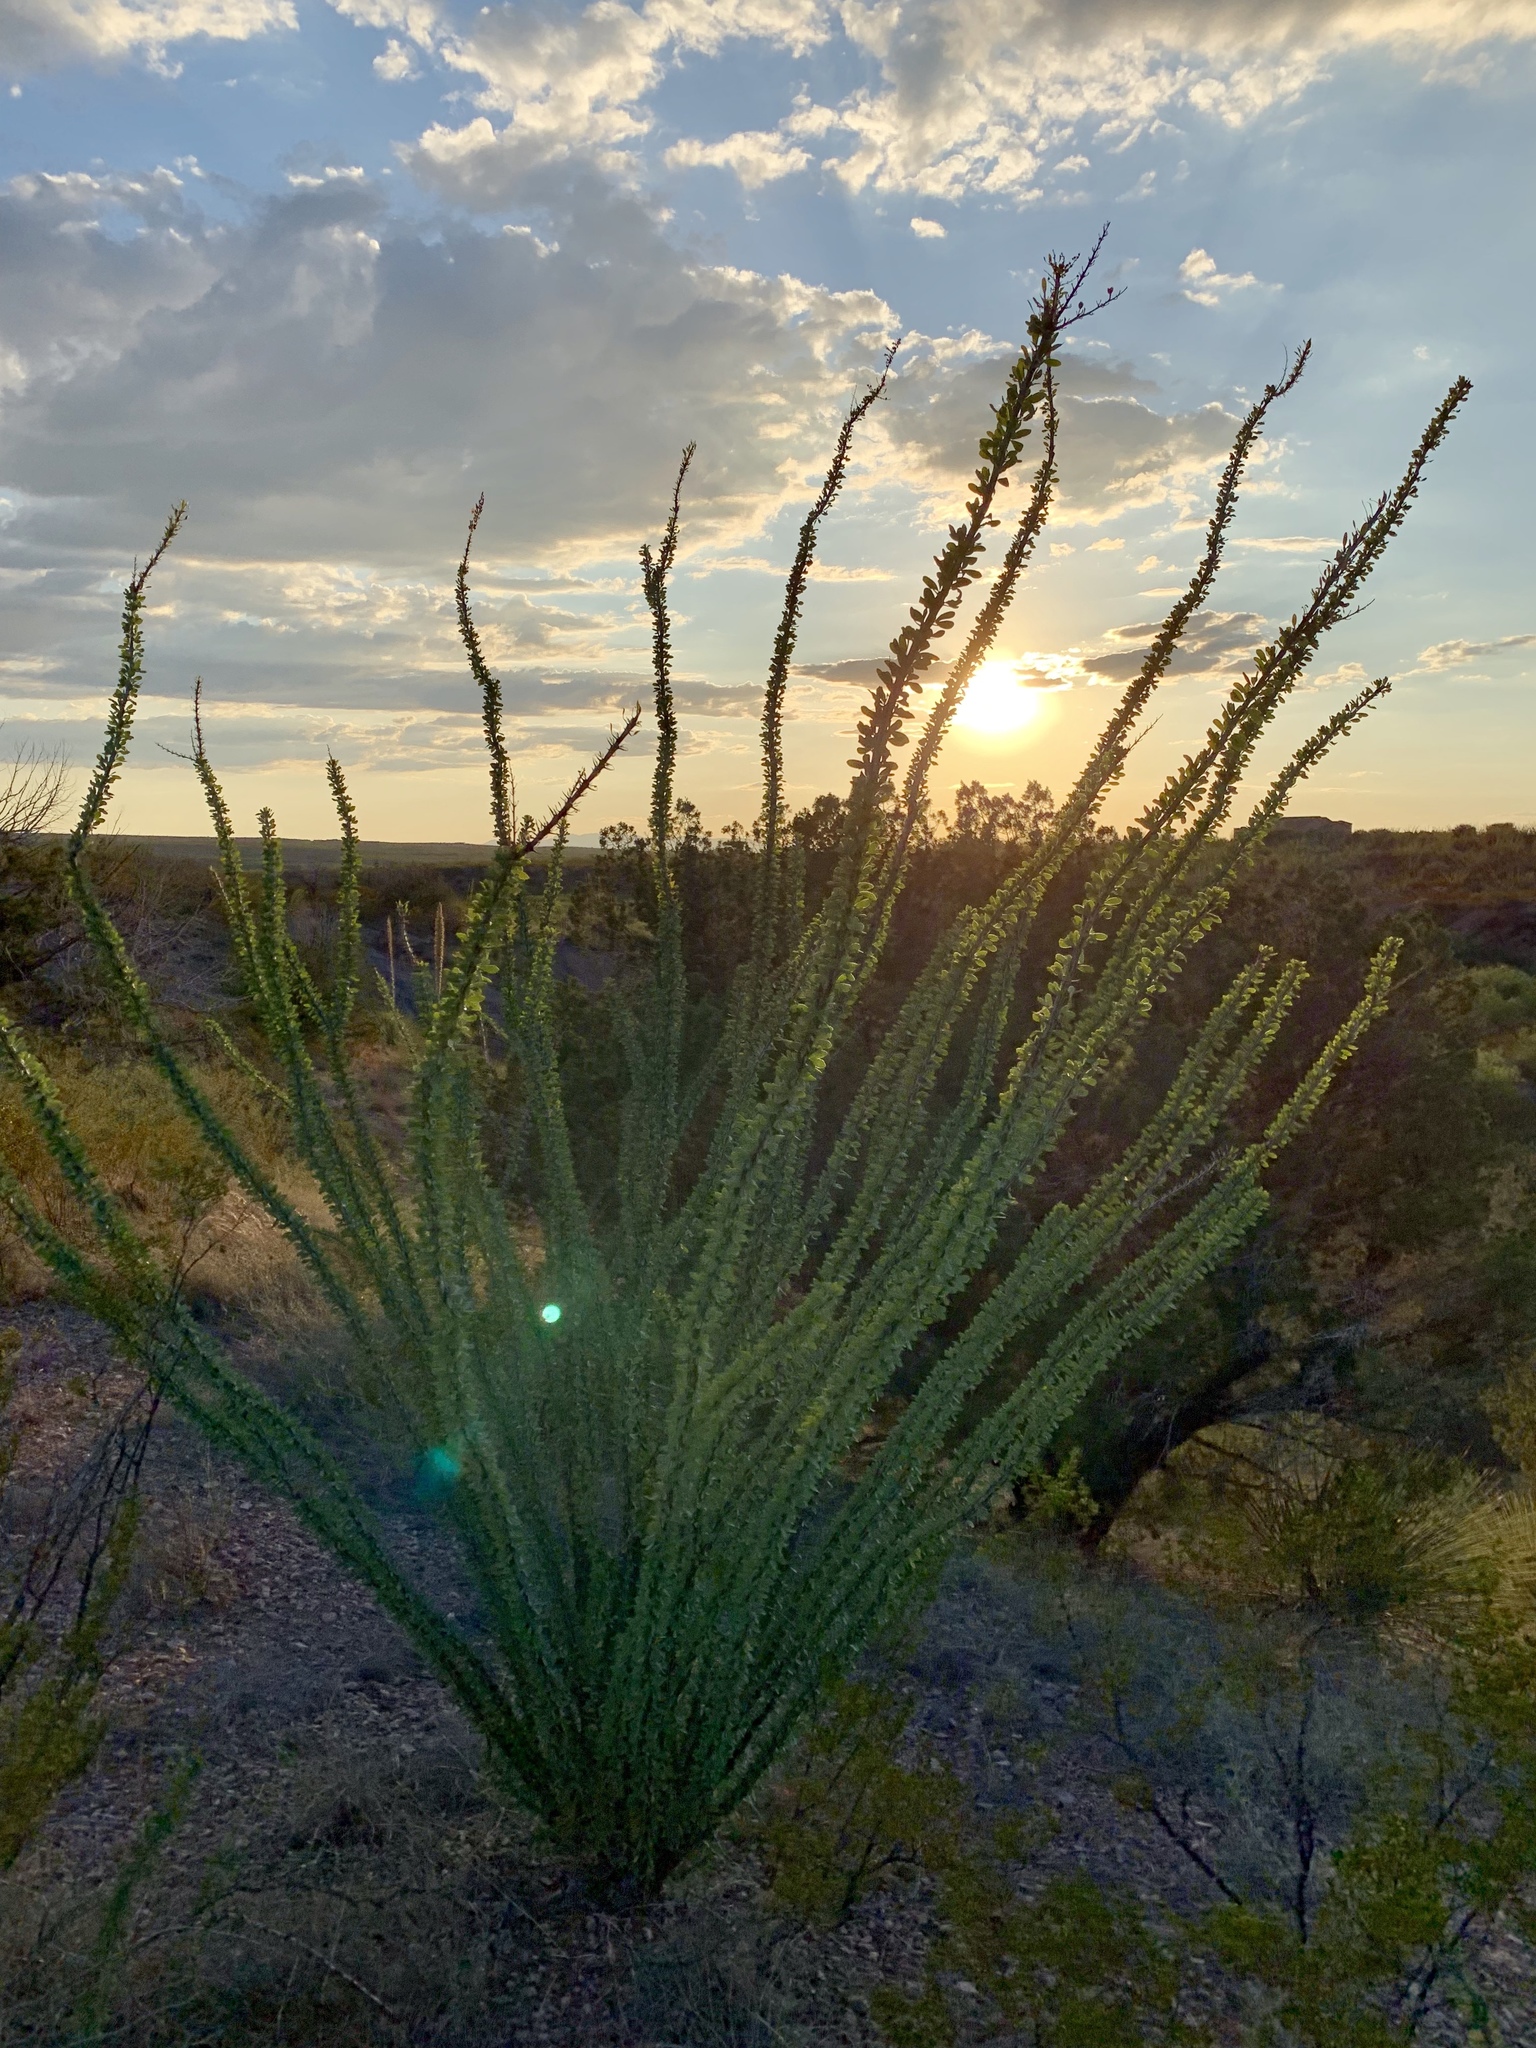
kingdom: Plantae
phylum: Tracheophyta
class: Magnoliopsida
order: Ericales
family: Fouquieriaceae
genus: Fouquieria
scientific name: Fouquieria splendens
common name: Vine-cactus
